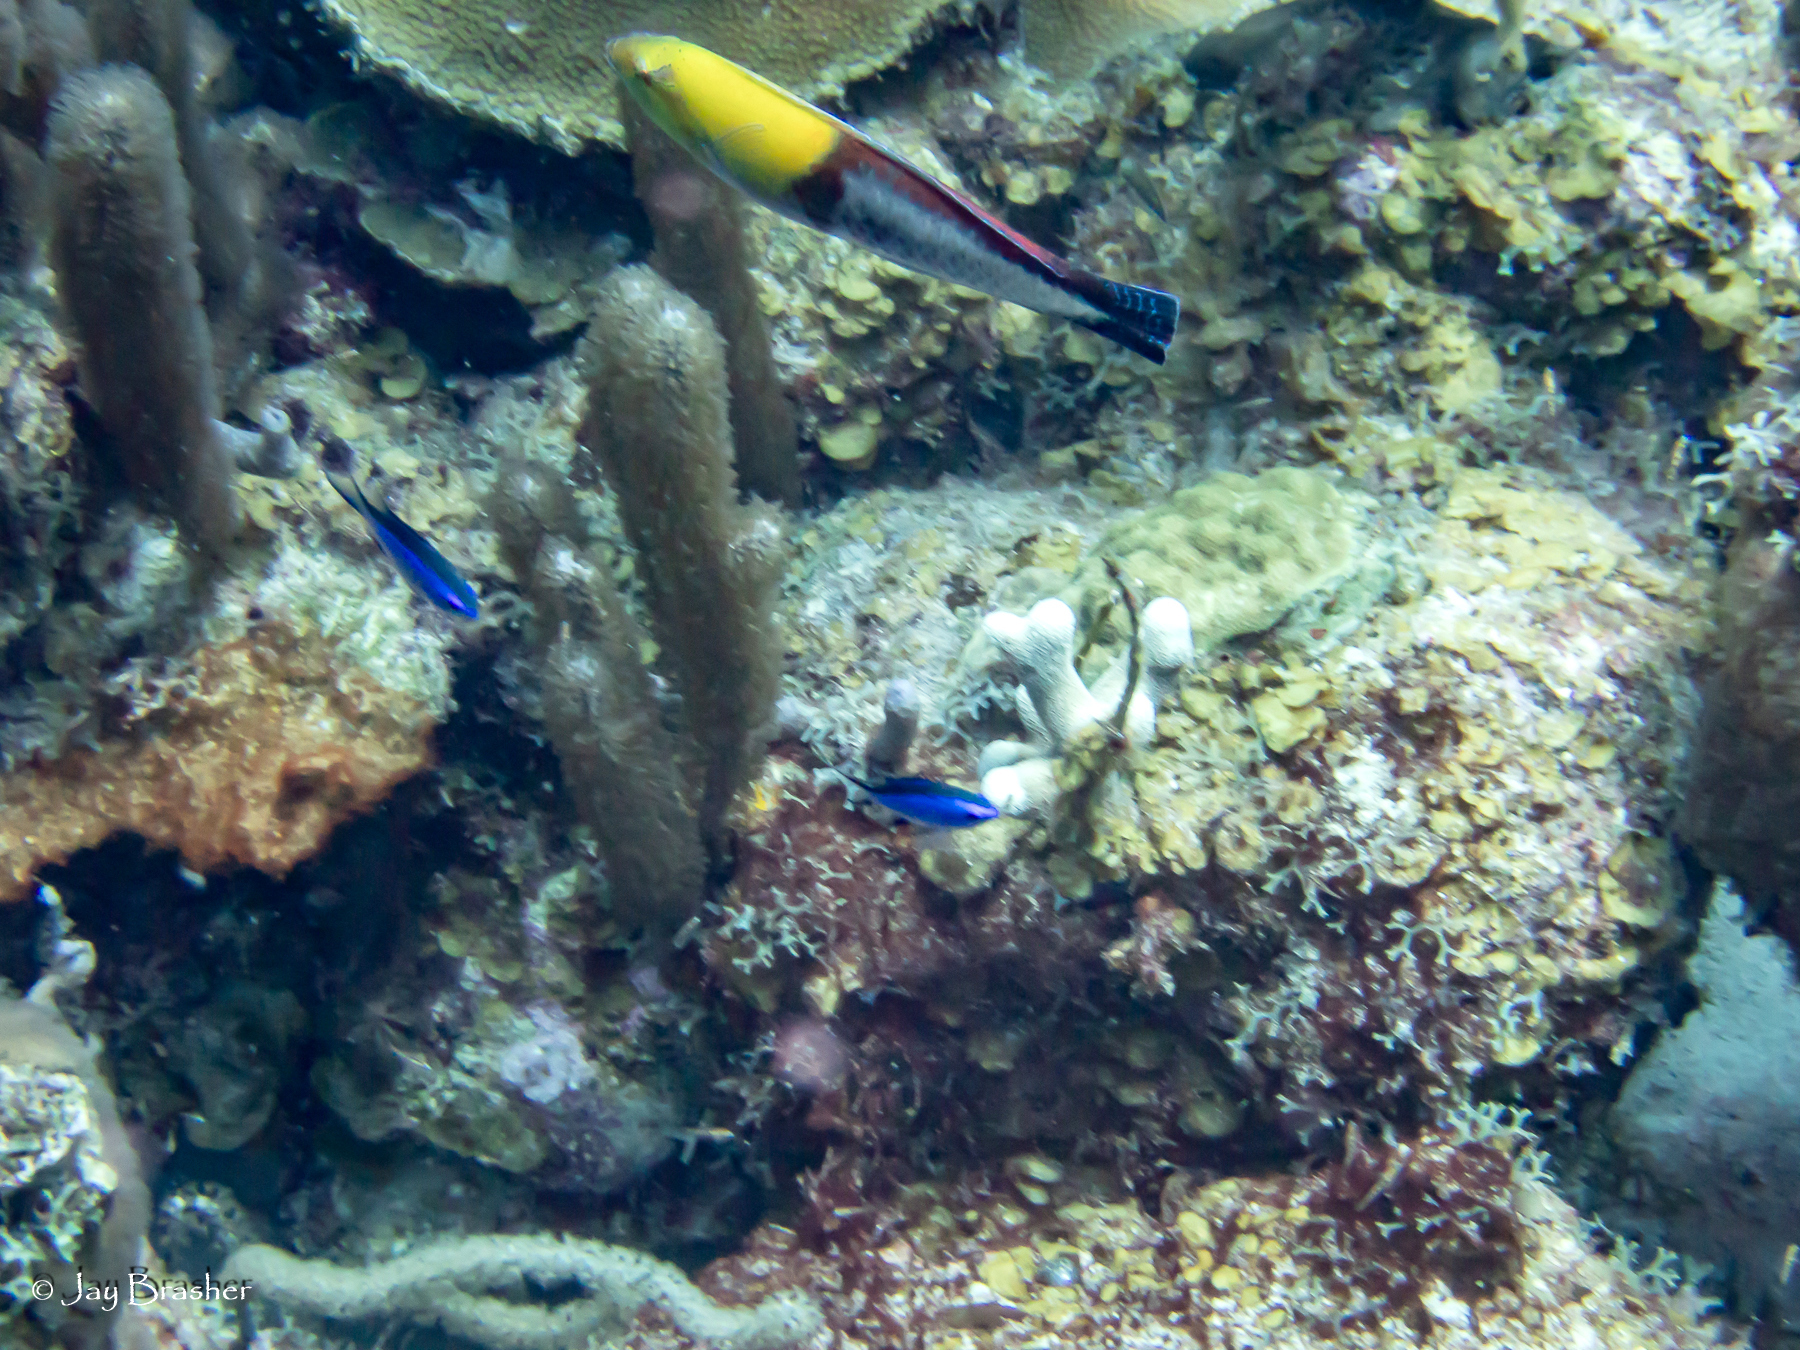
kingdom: Animalia
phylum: Chordata
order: Perciformes
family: Pomacentridae
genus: Chromis
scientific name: Chromis cyanea
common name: Blue chromis
